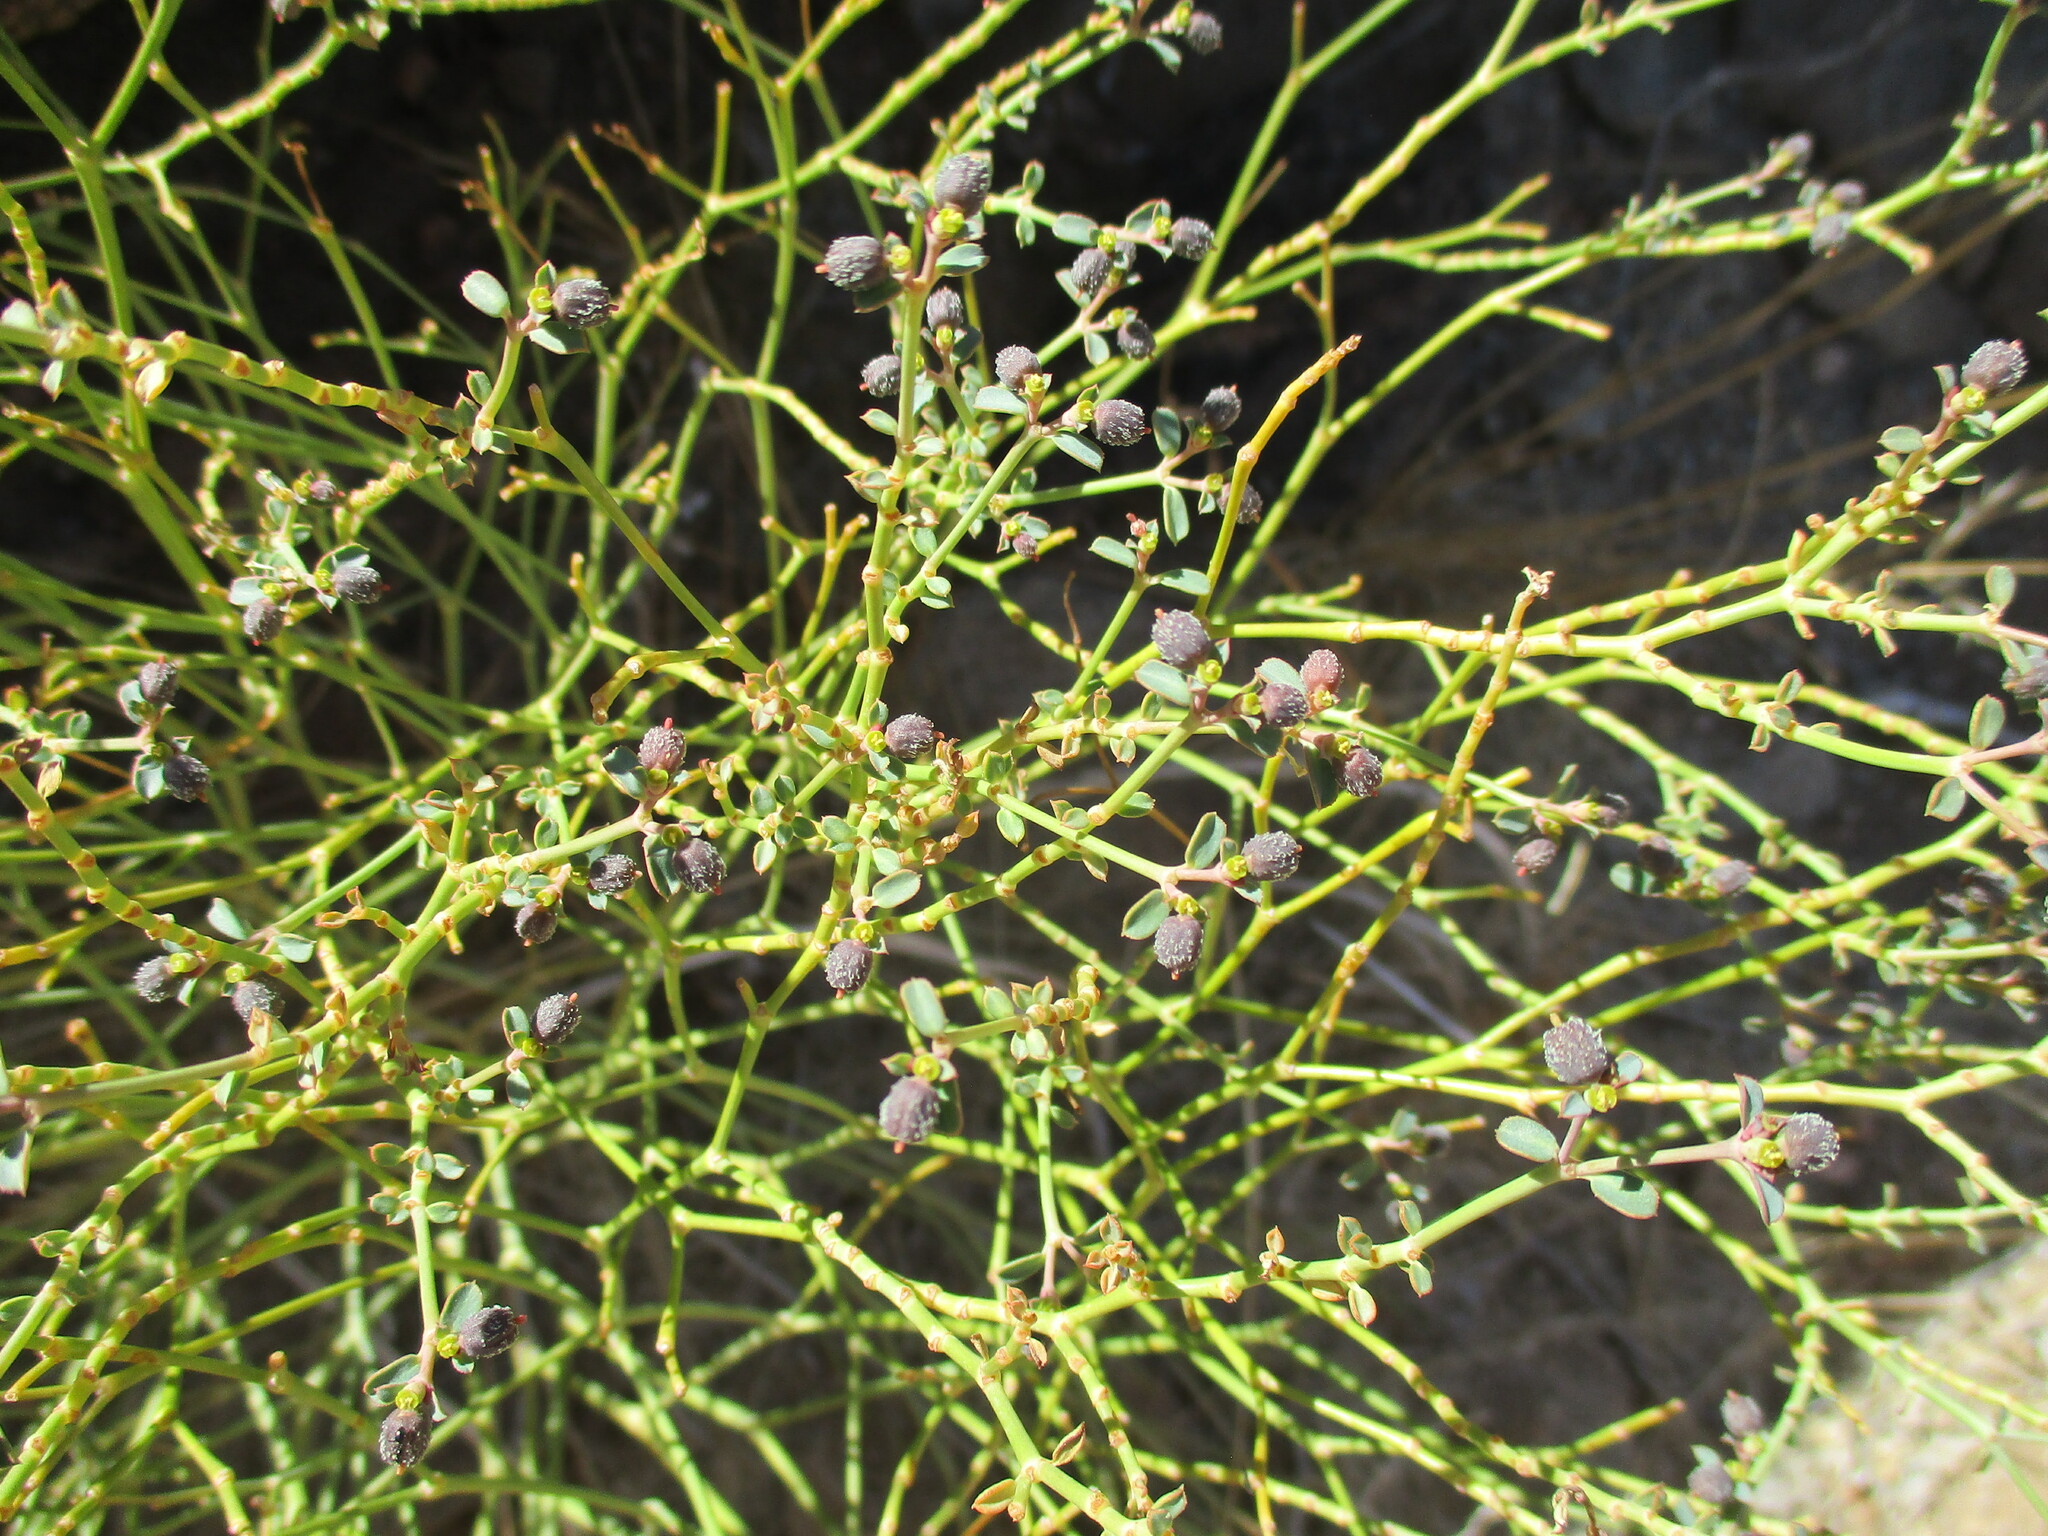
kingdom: Plantae
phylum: Tracheophyta
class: Magnoliopsida
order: Malpighiales
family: Euphorbiaceae
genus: Euphorbia
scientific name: Euphorbia glanduligera
